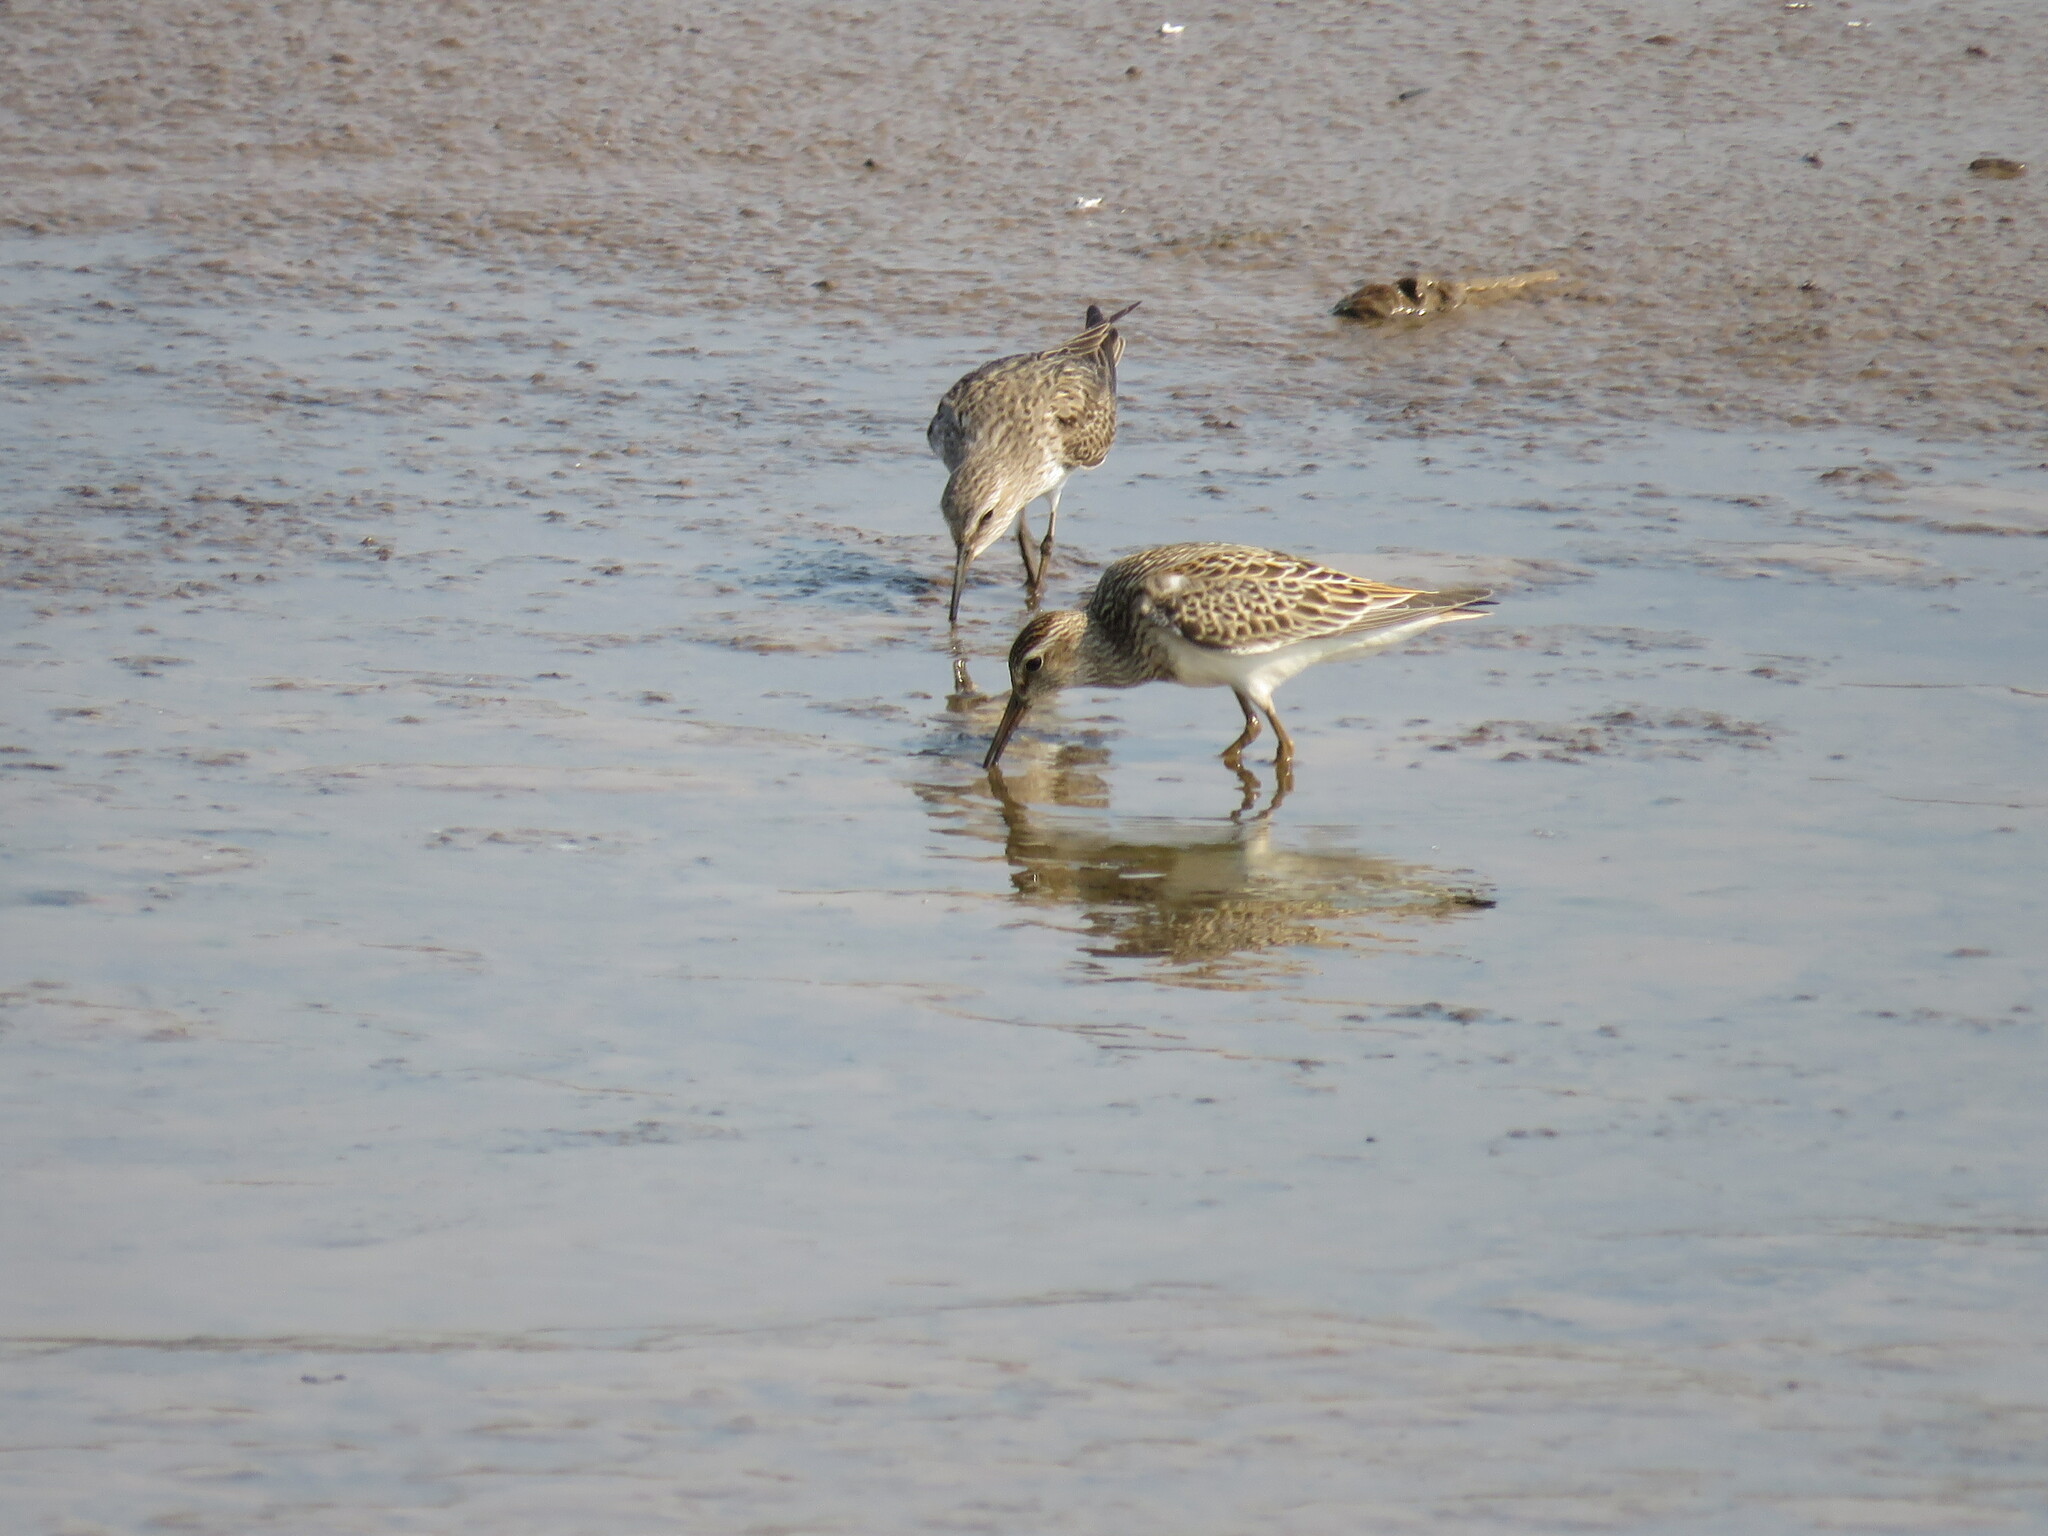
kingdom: Animalia
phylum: Chordata
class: Aves
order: Charadriiformes
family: Scolopacidae
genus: Calidris
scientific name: Calidris melanotos
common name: Pectoral sandpiper
